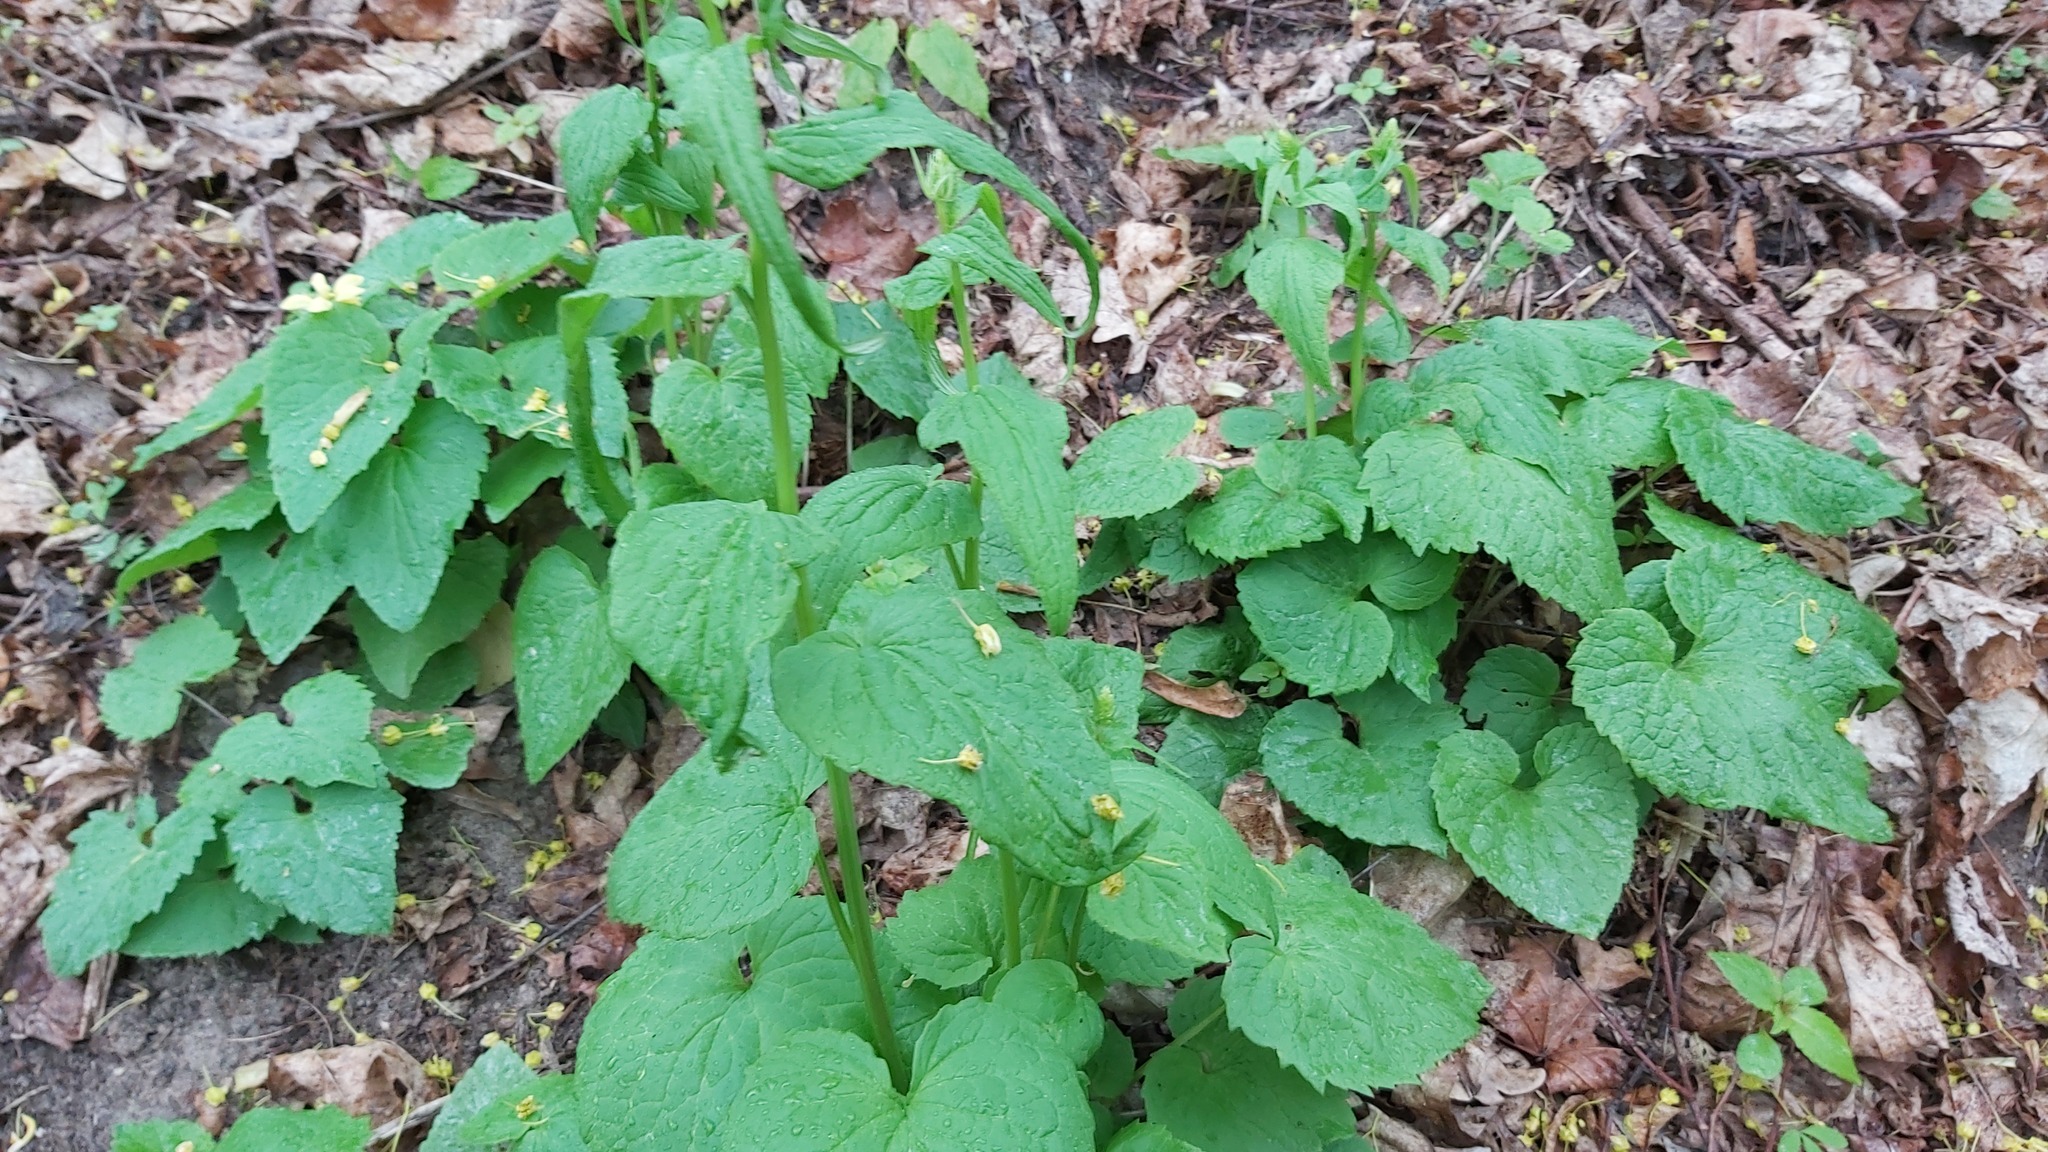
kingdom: Plantae
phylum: Tracheophyta
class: Magnoliopsida
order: Asterales
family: Campanulaceae
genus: Phyteuma
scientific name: Phyteuma spicatum
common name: Spiked rampion
